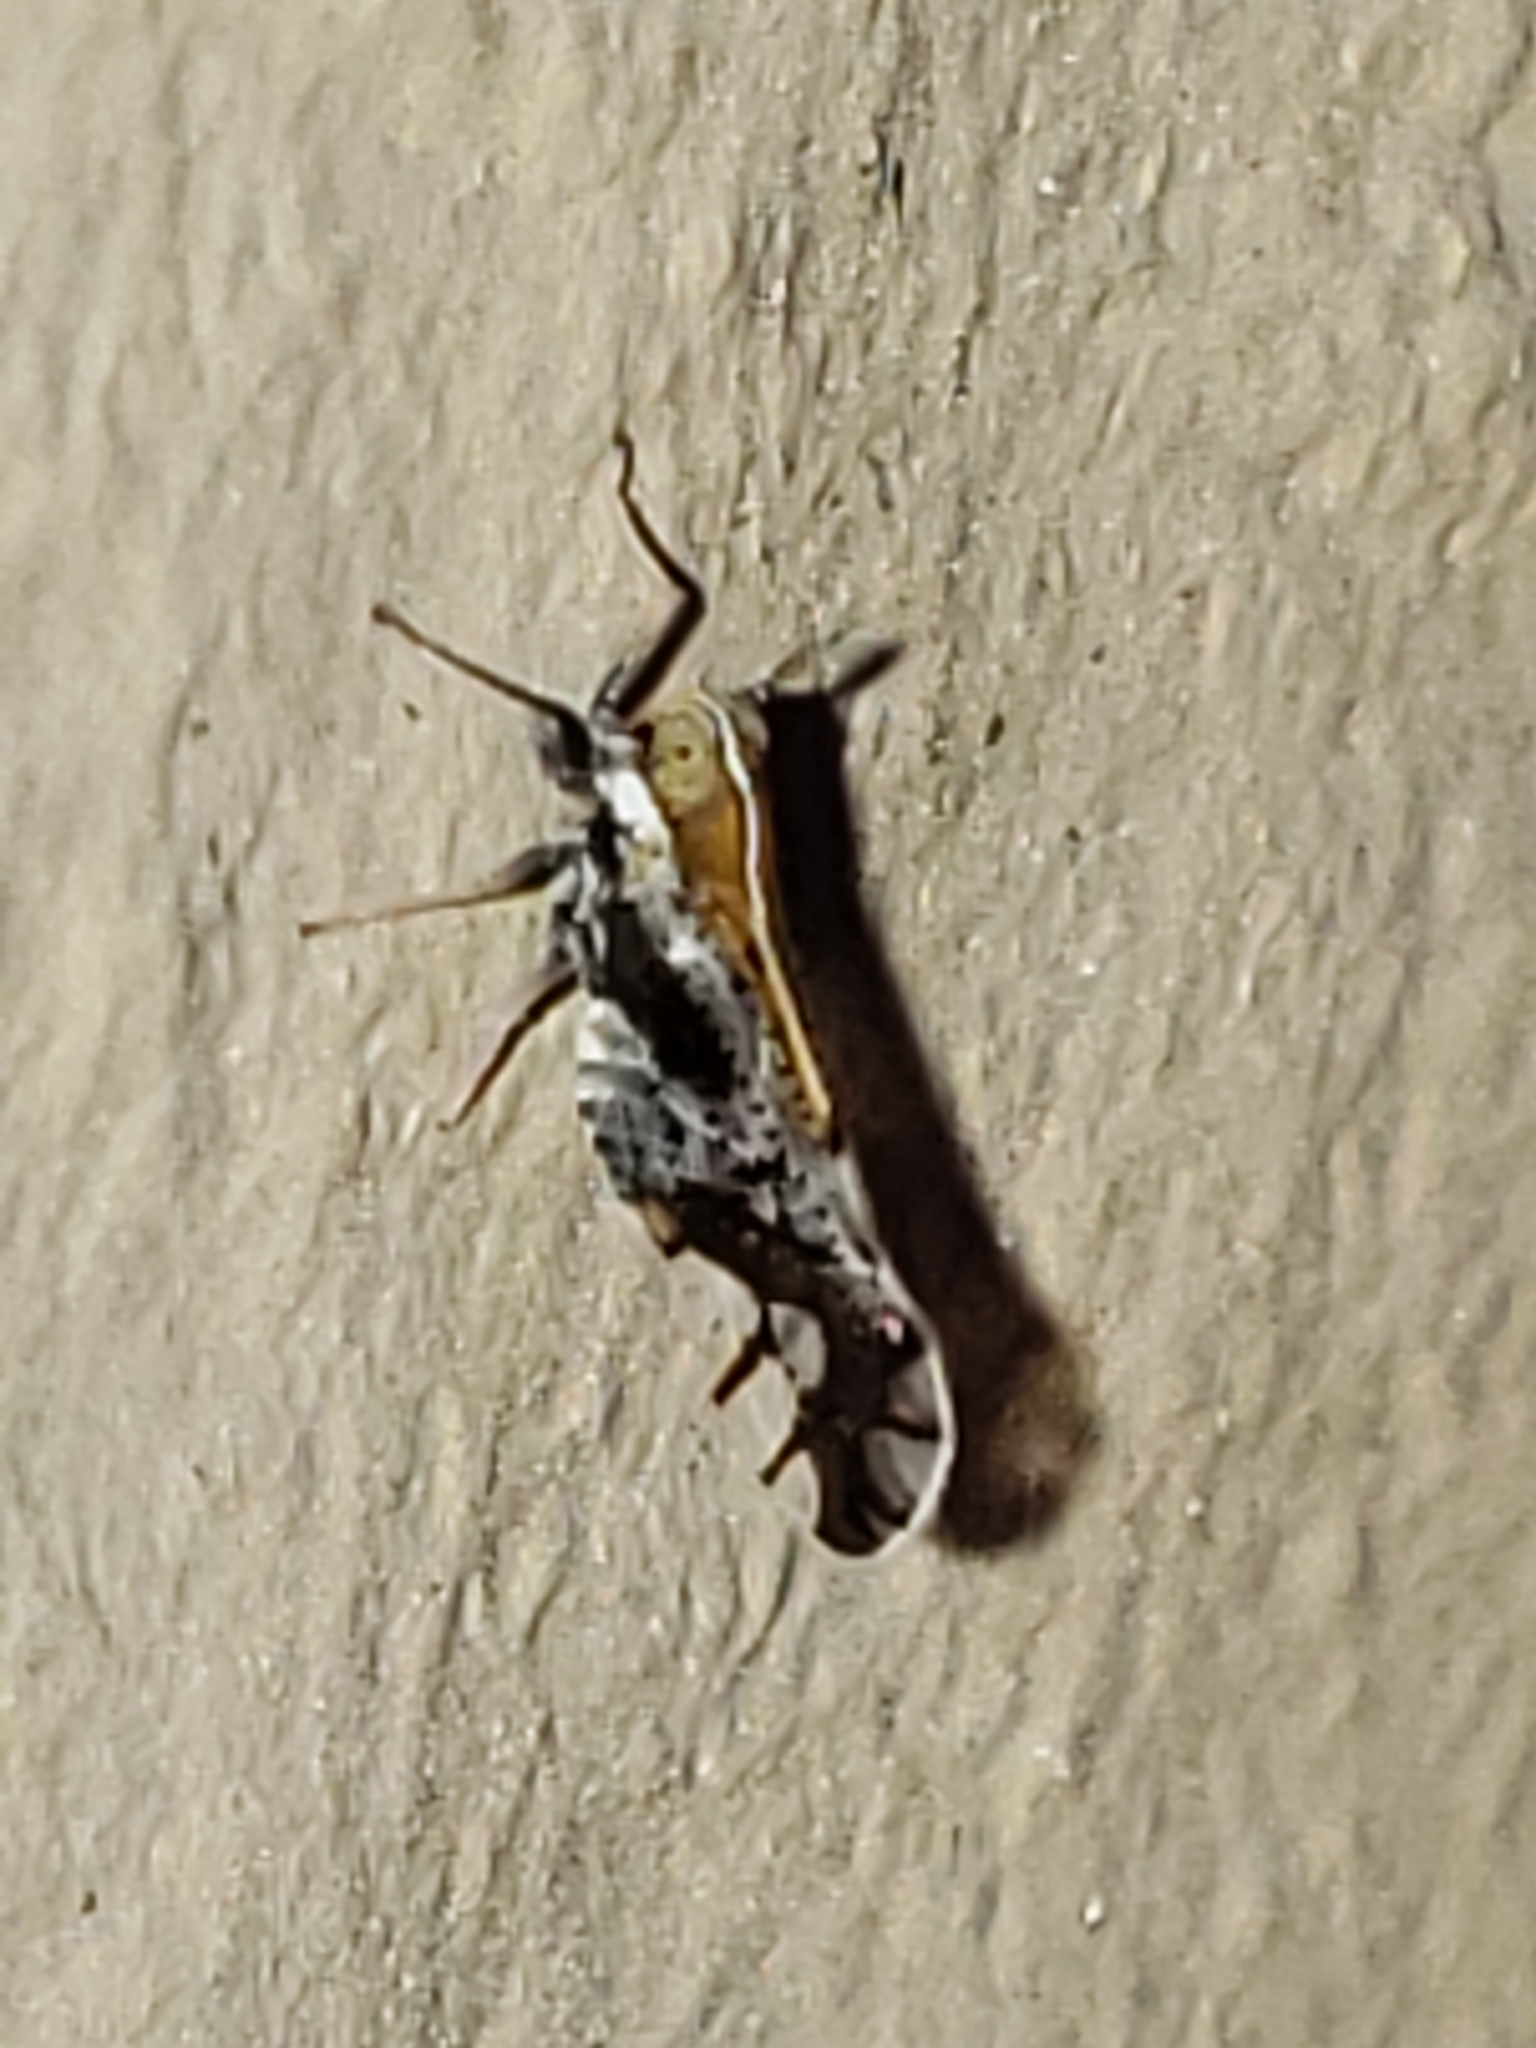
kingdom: Animalia
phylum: Arthropoda
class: Insecta
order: Hemiptera
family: Delphacidae
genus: Liburniella
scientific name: Liburniella ornata
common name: Ornate planthopper
